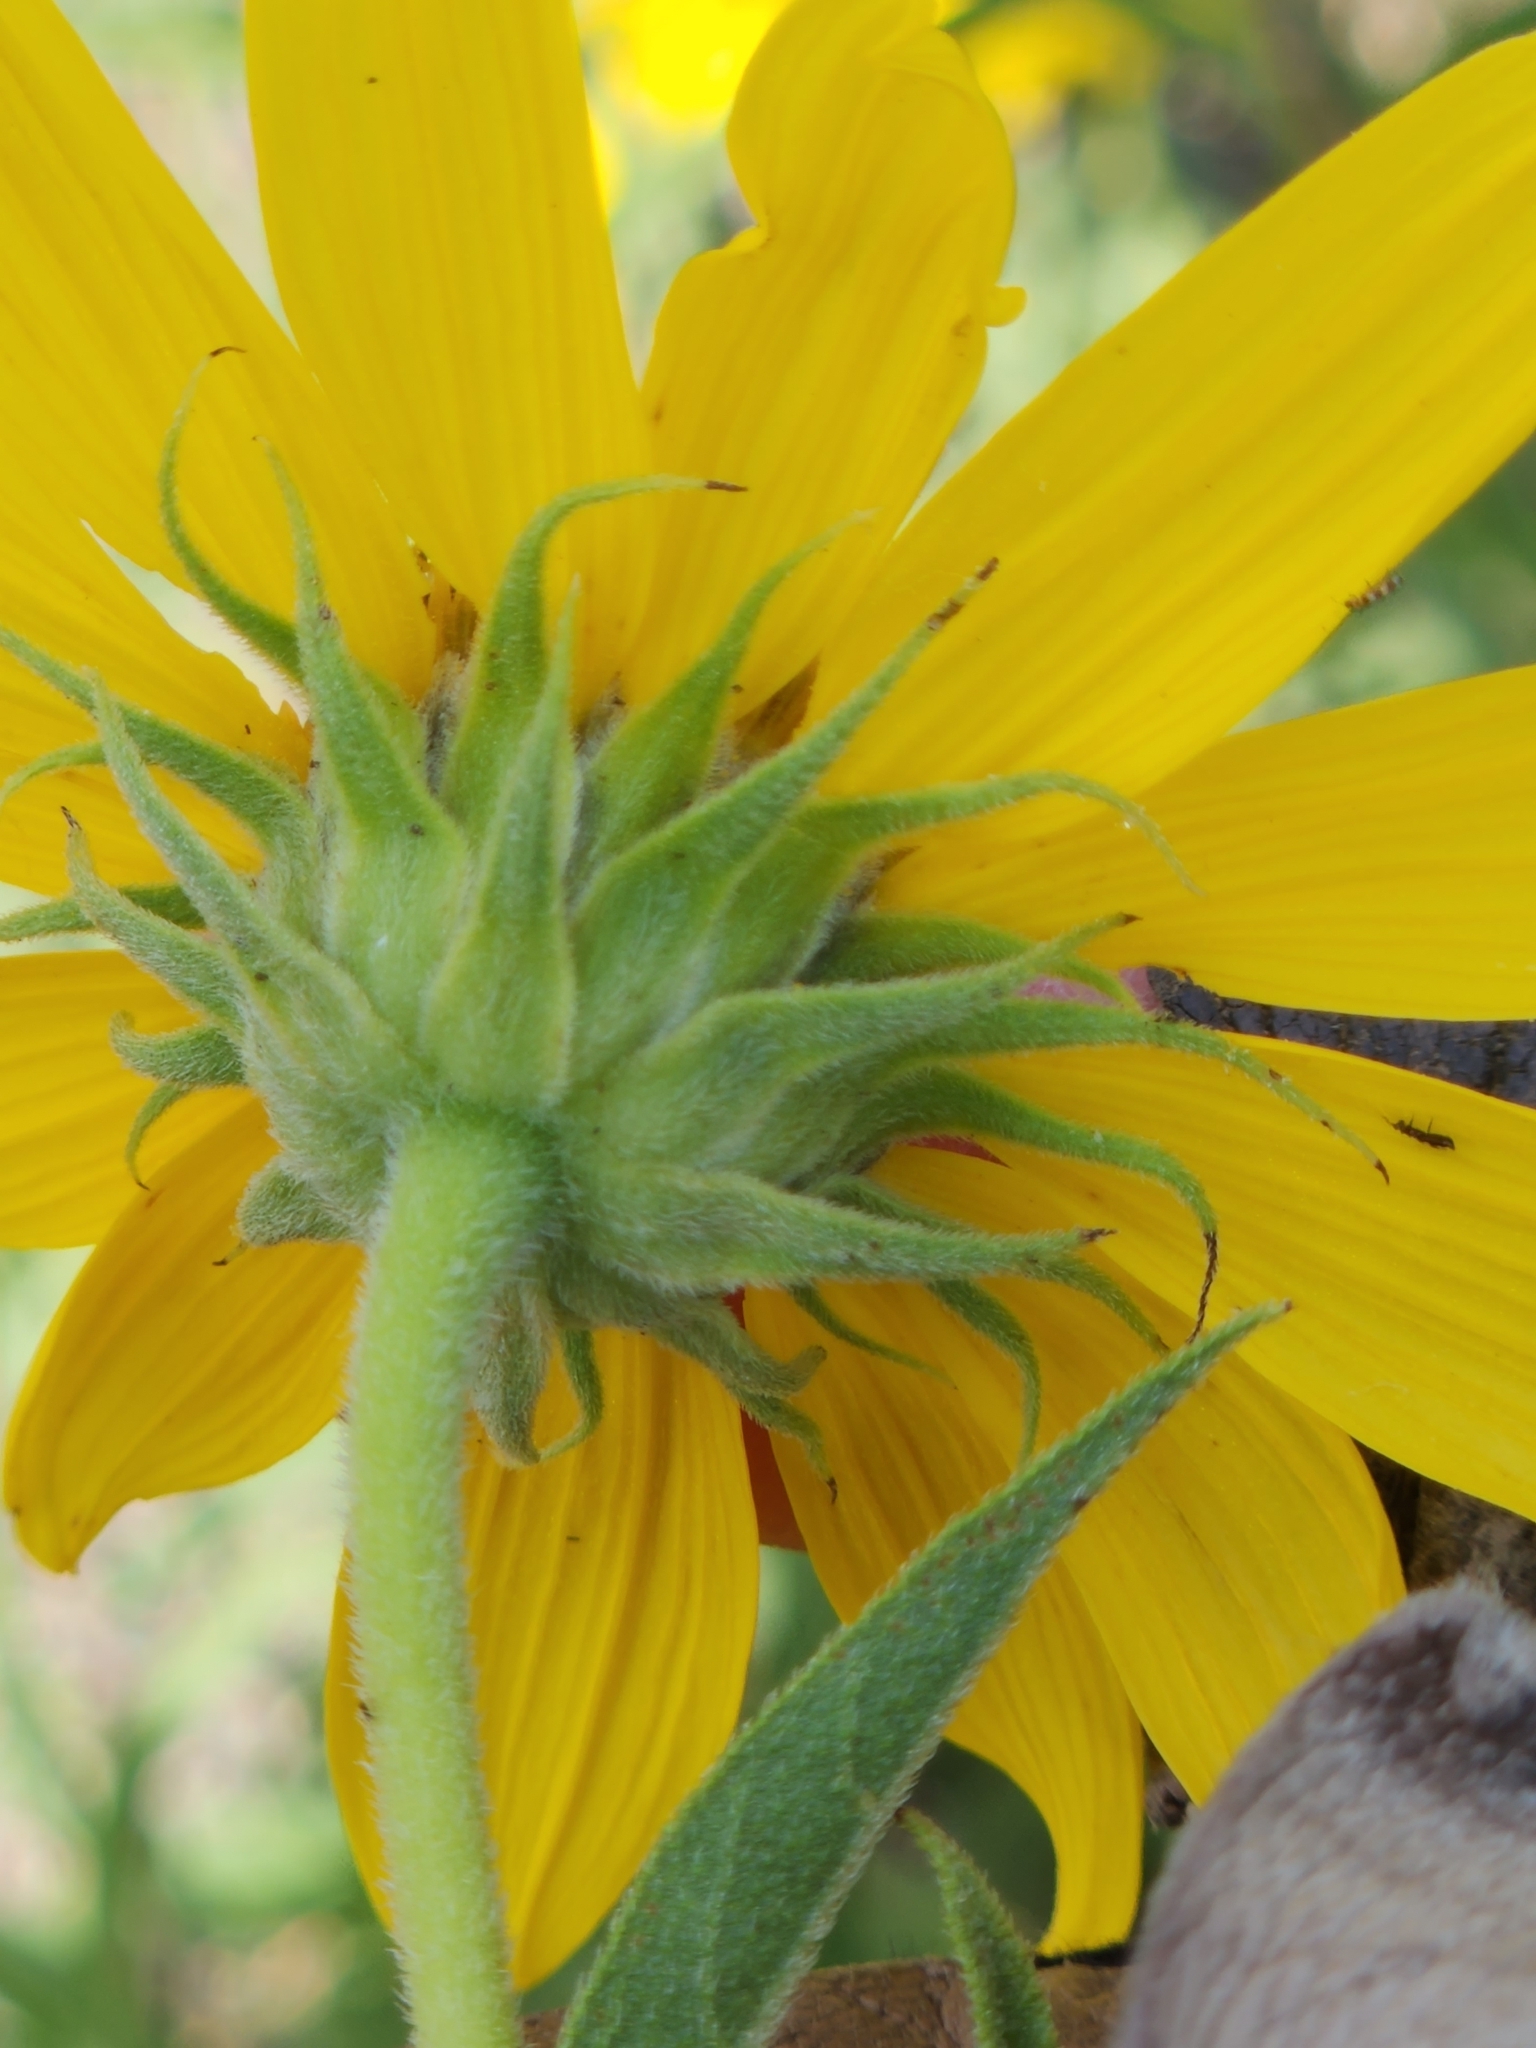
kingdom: Plantae
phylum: Tracheophyta
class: Magnoliopsida
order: Asterales
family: Asteraceae
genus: Helianthus
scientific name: Helianthus maximiliani
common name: Maximilian's sunflower
